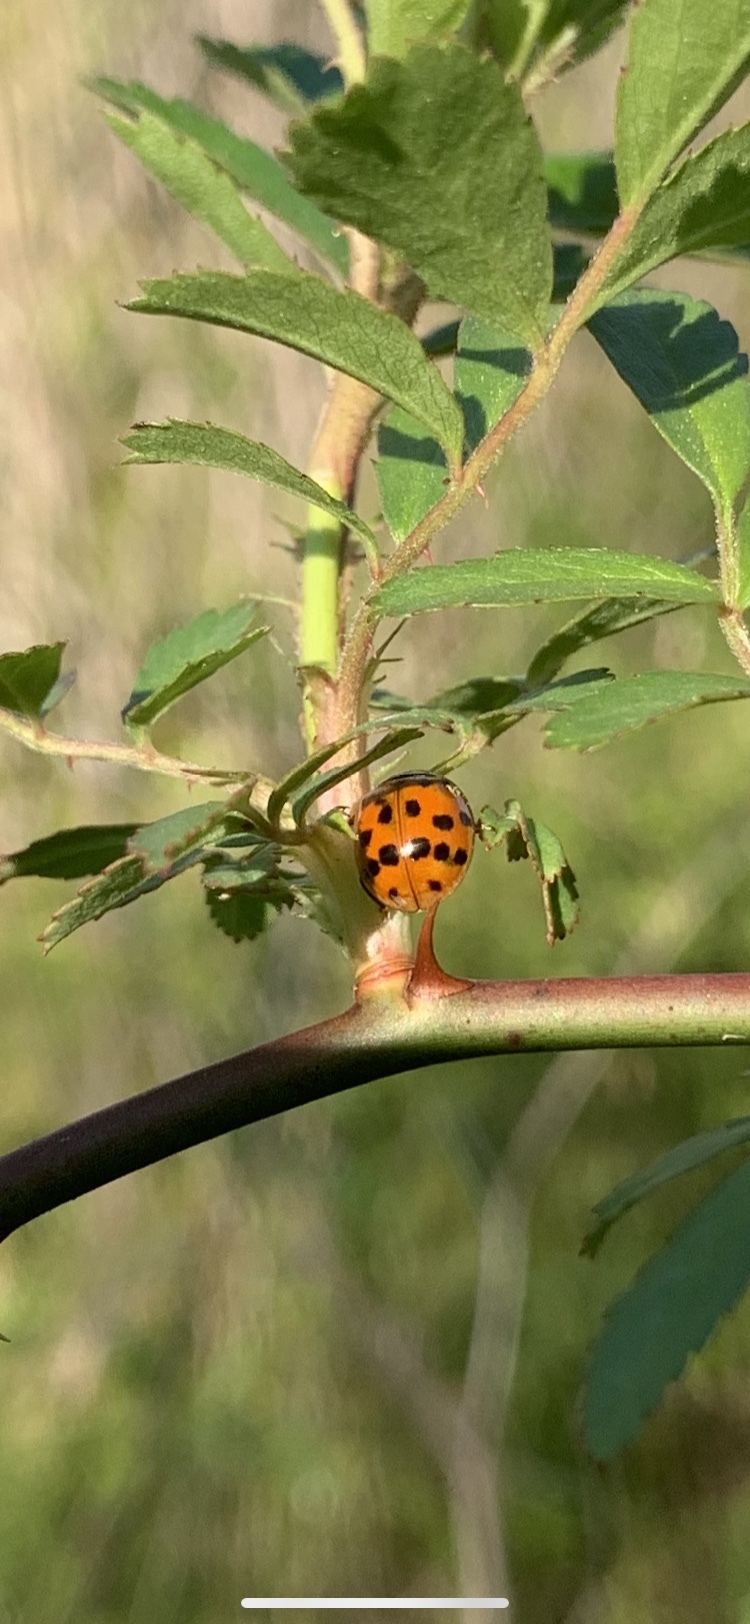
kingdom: Animalia
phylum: Arthropoda
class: Insecta
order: Coleoptera
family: Coccinellidae
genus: Harmonia
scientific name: Harmonia axyridis
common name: Harlequin ladybird
